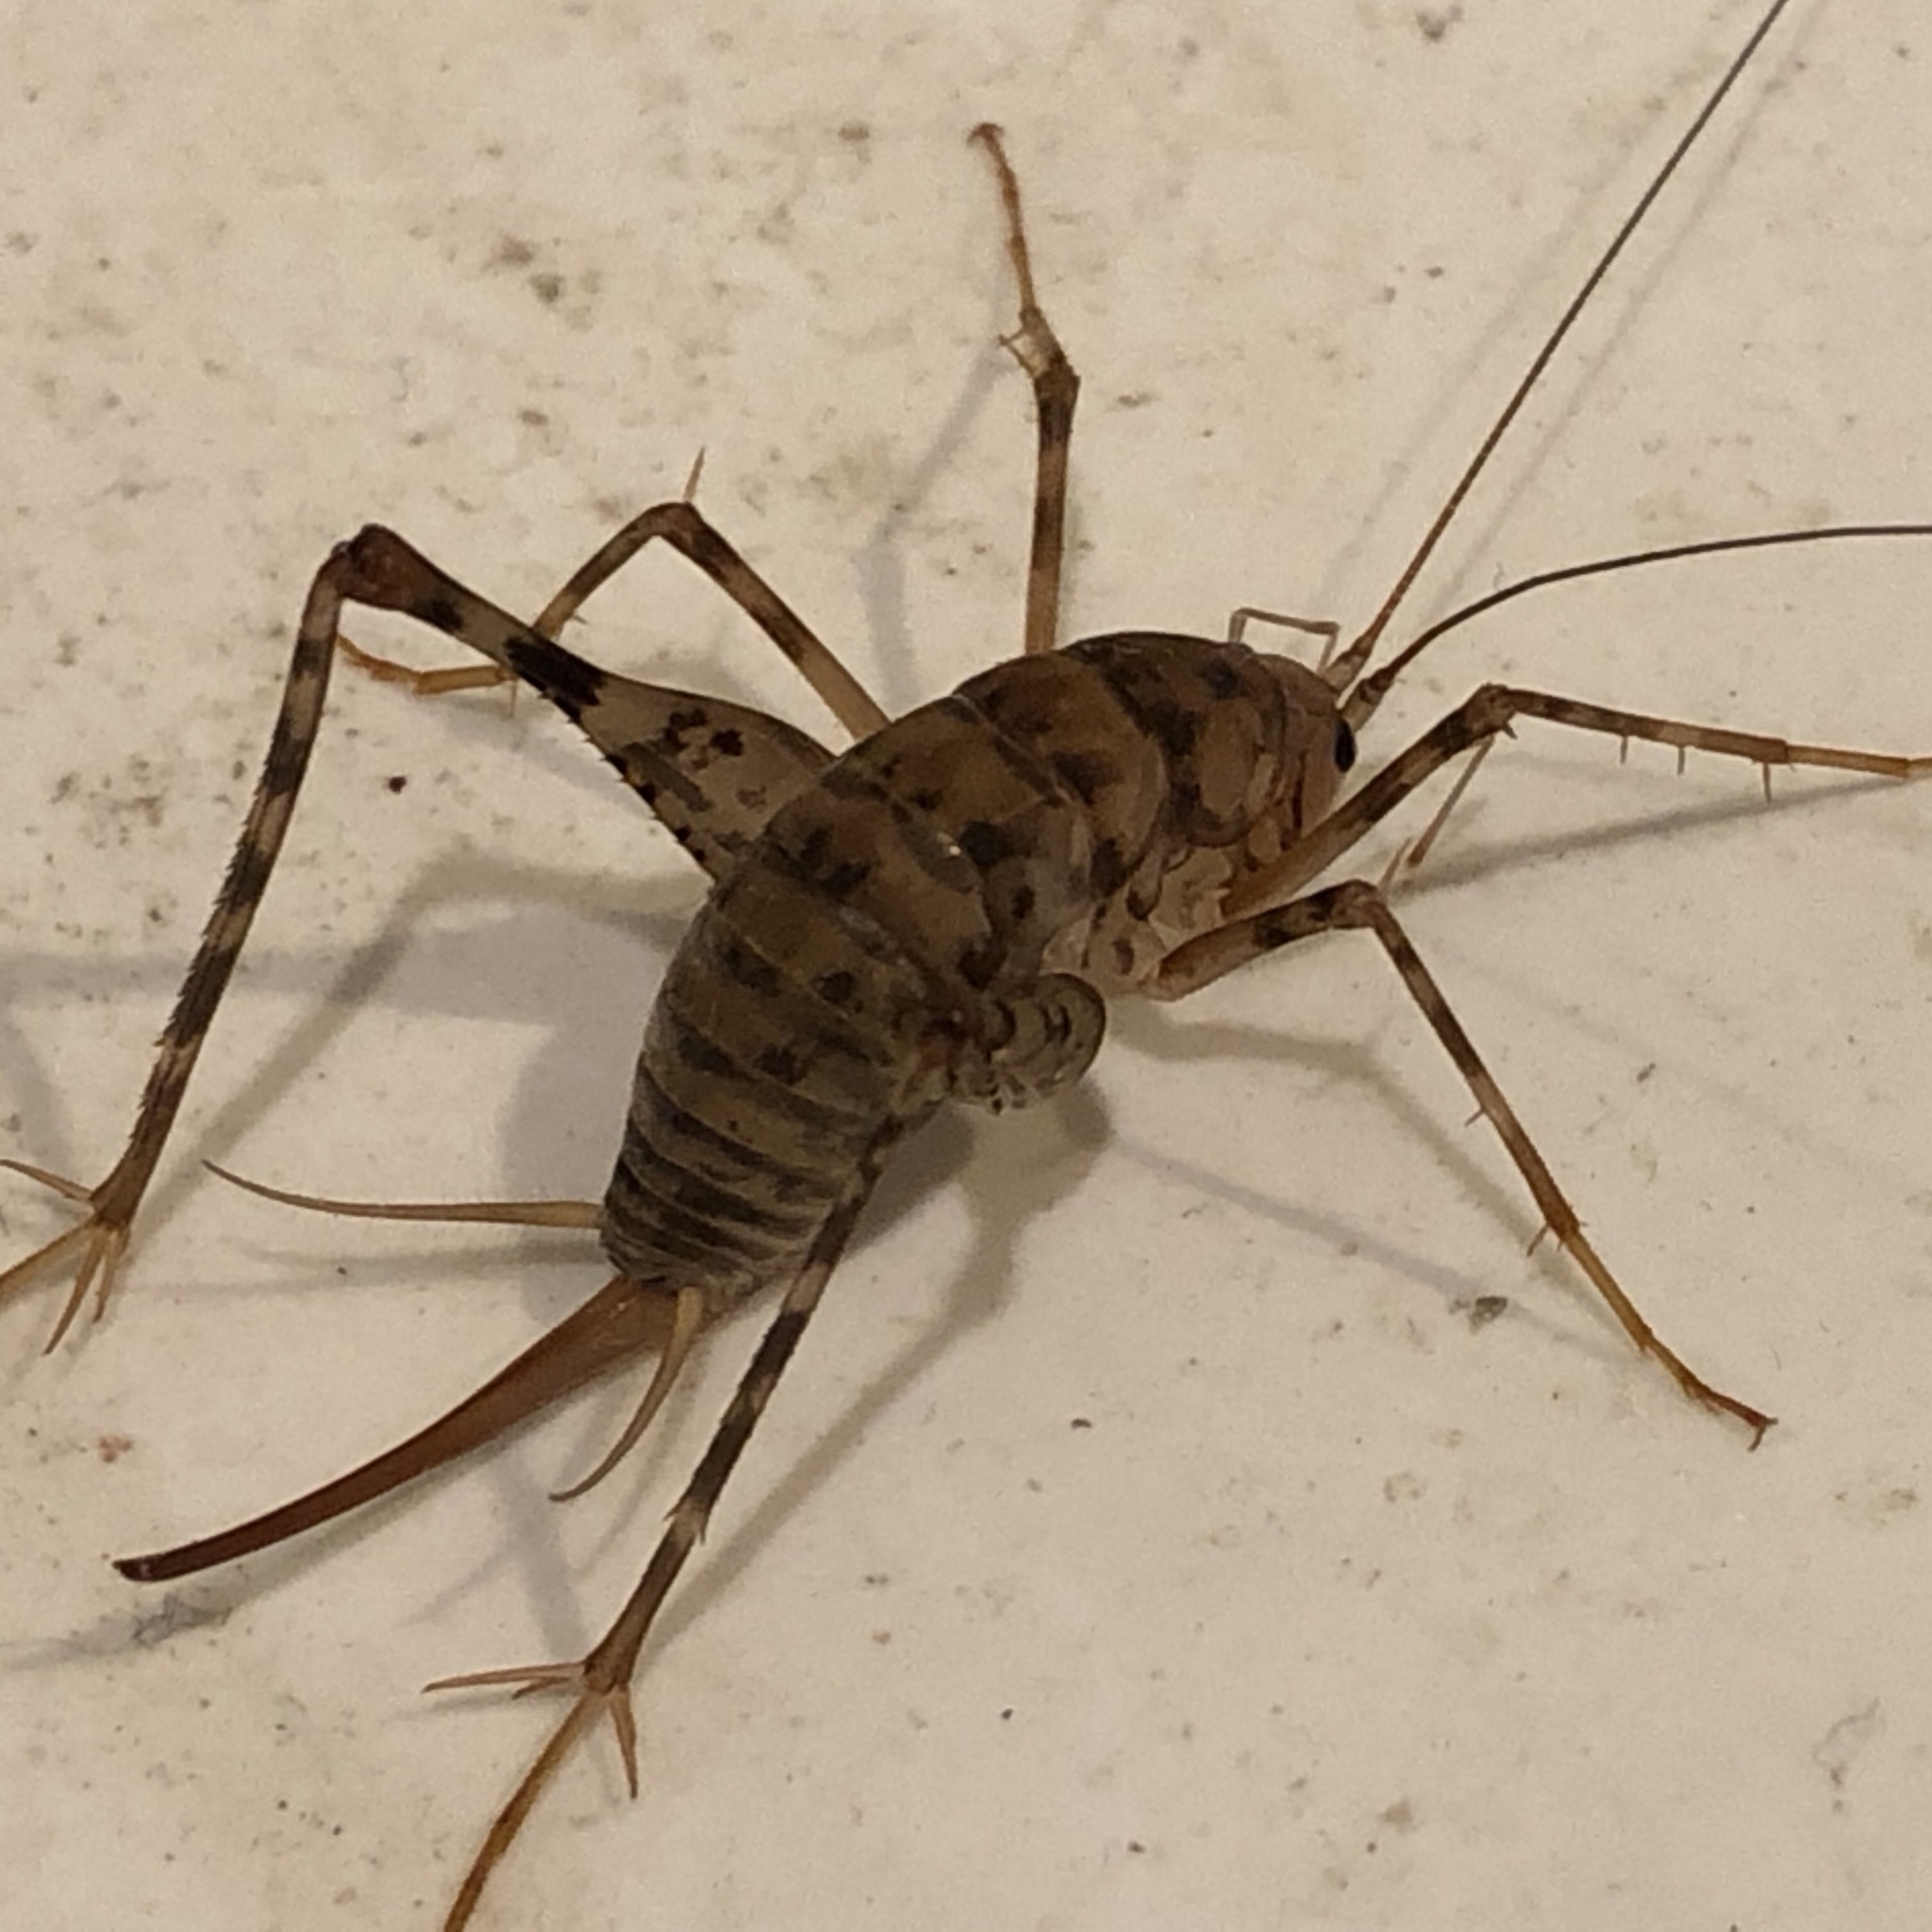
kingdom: Animalia
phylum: Arthropoda
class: Insecta
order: Orthoptera
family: Rhaphidophoridae
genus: Tachycines
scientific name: Tachycines asynamorus
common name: Greenhouse camel cricket
